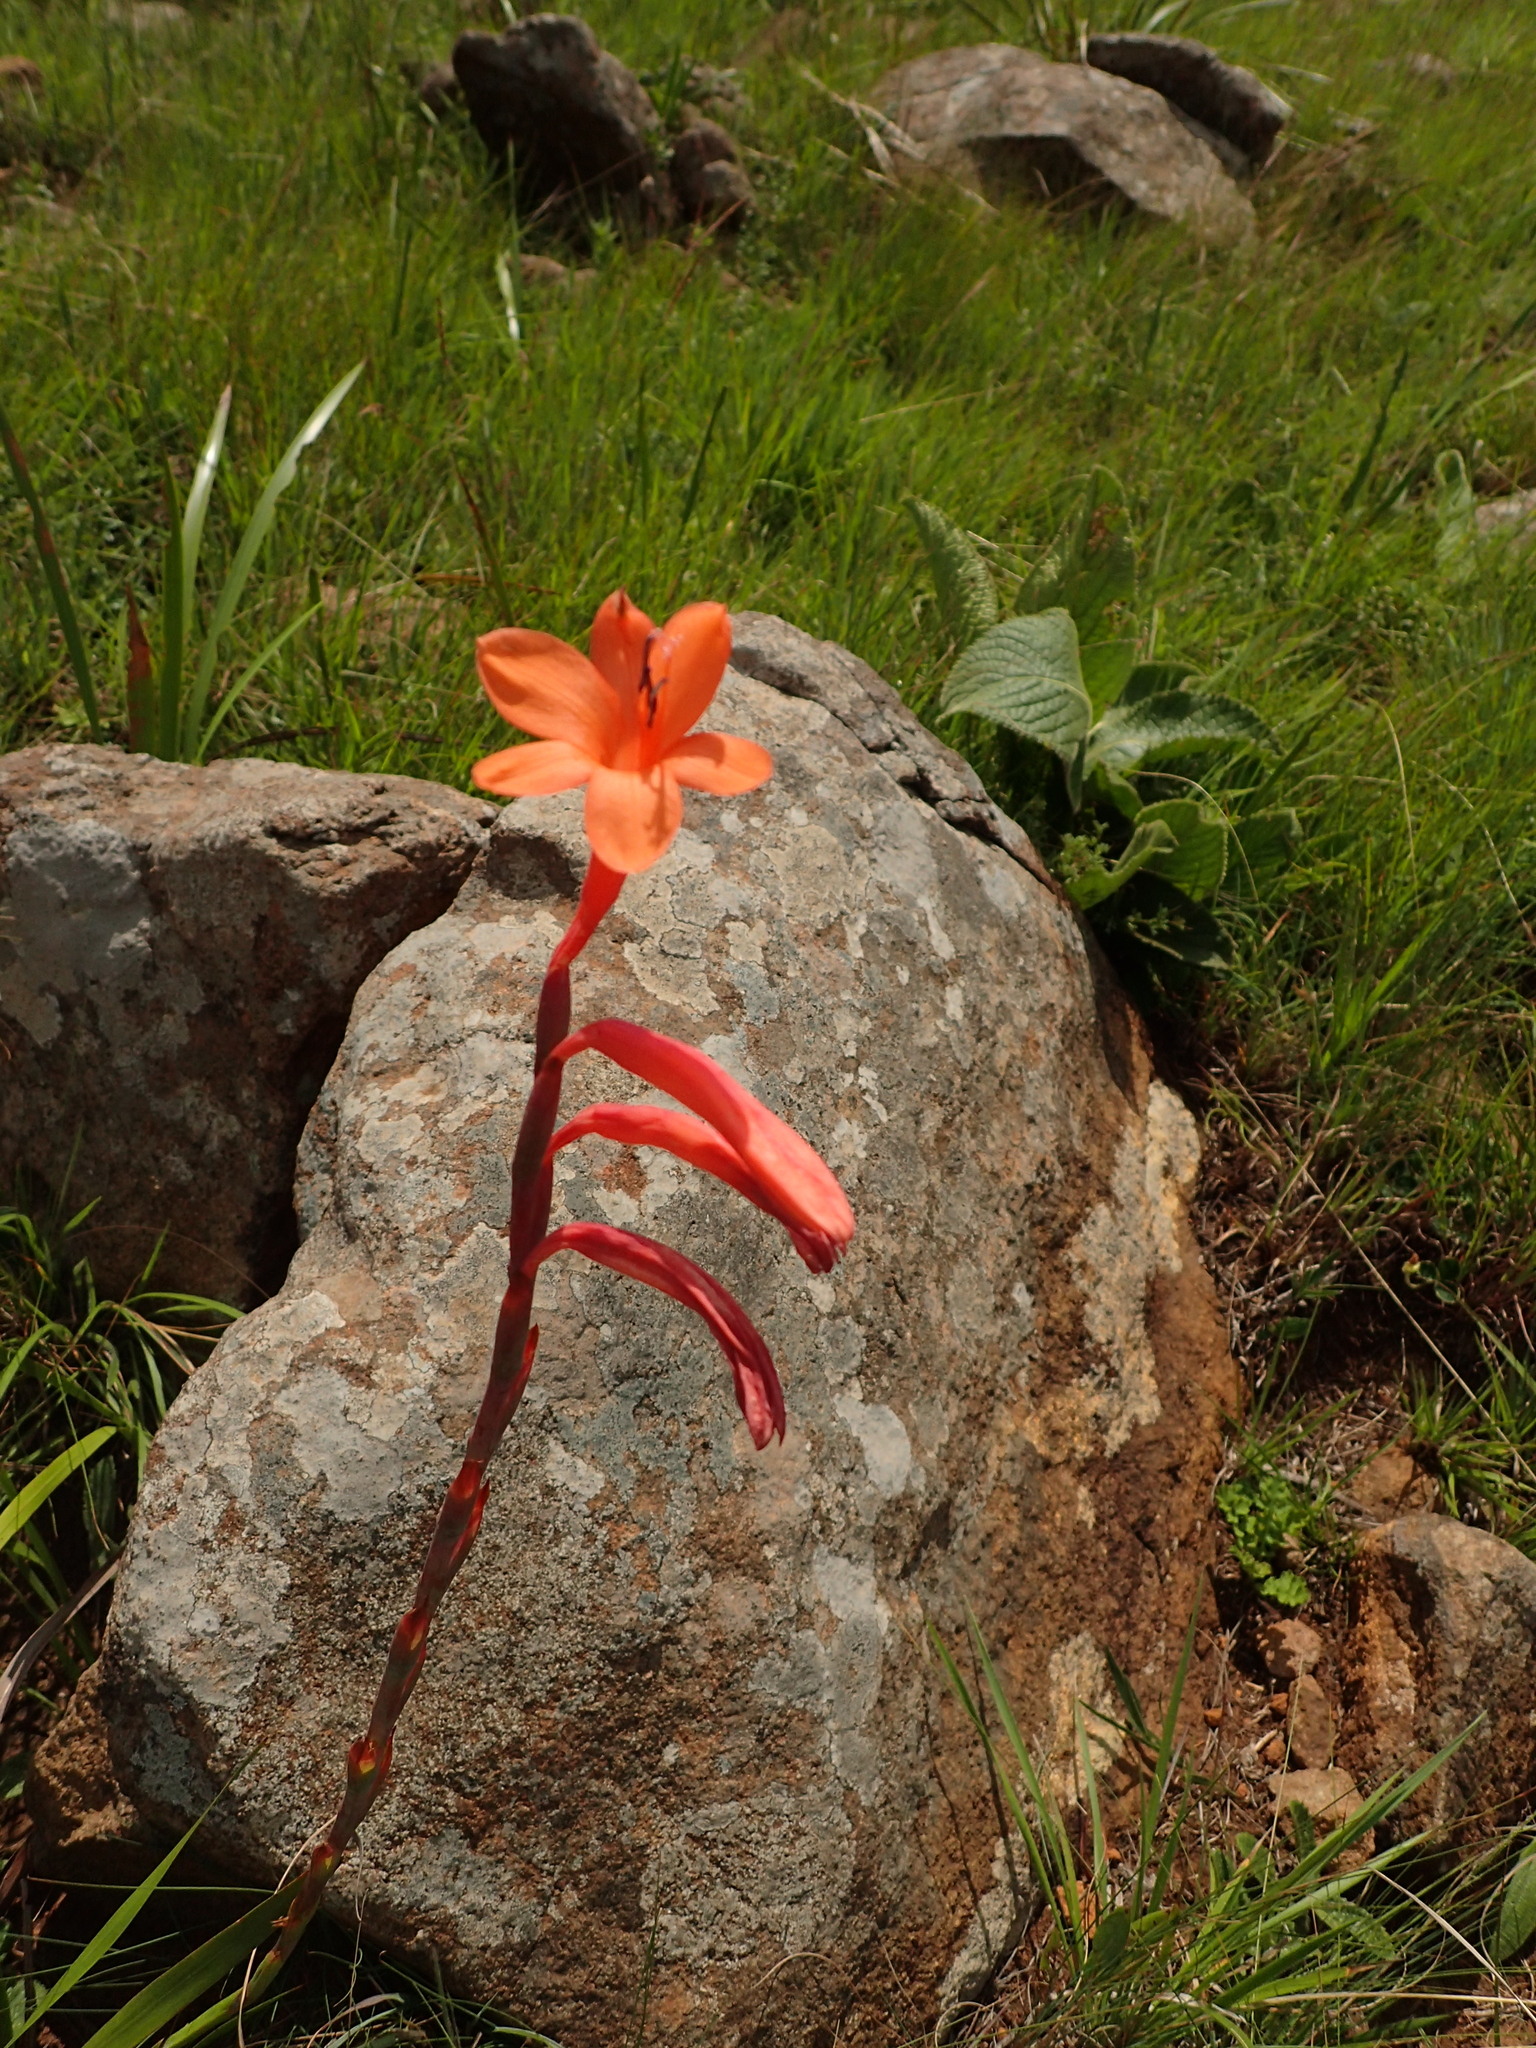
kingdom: Plantae
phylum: Tracheophyta
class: Liliopsida
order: Asparagales
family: Iridaceae
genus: Watsonia
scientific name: Watsonia pillansii
